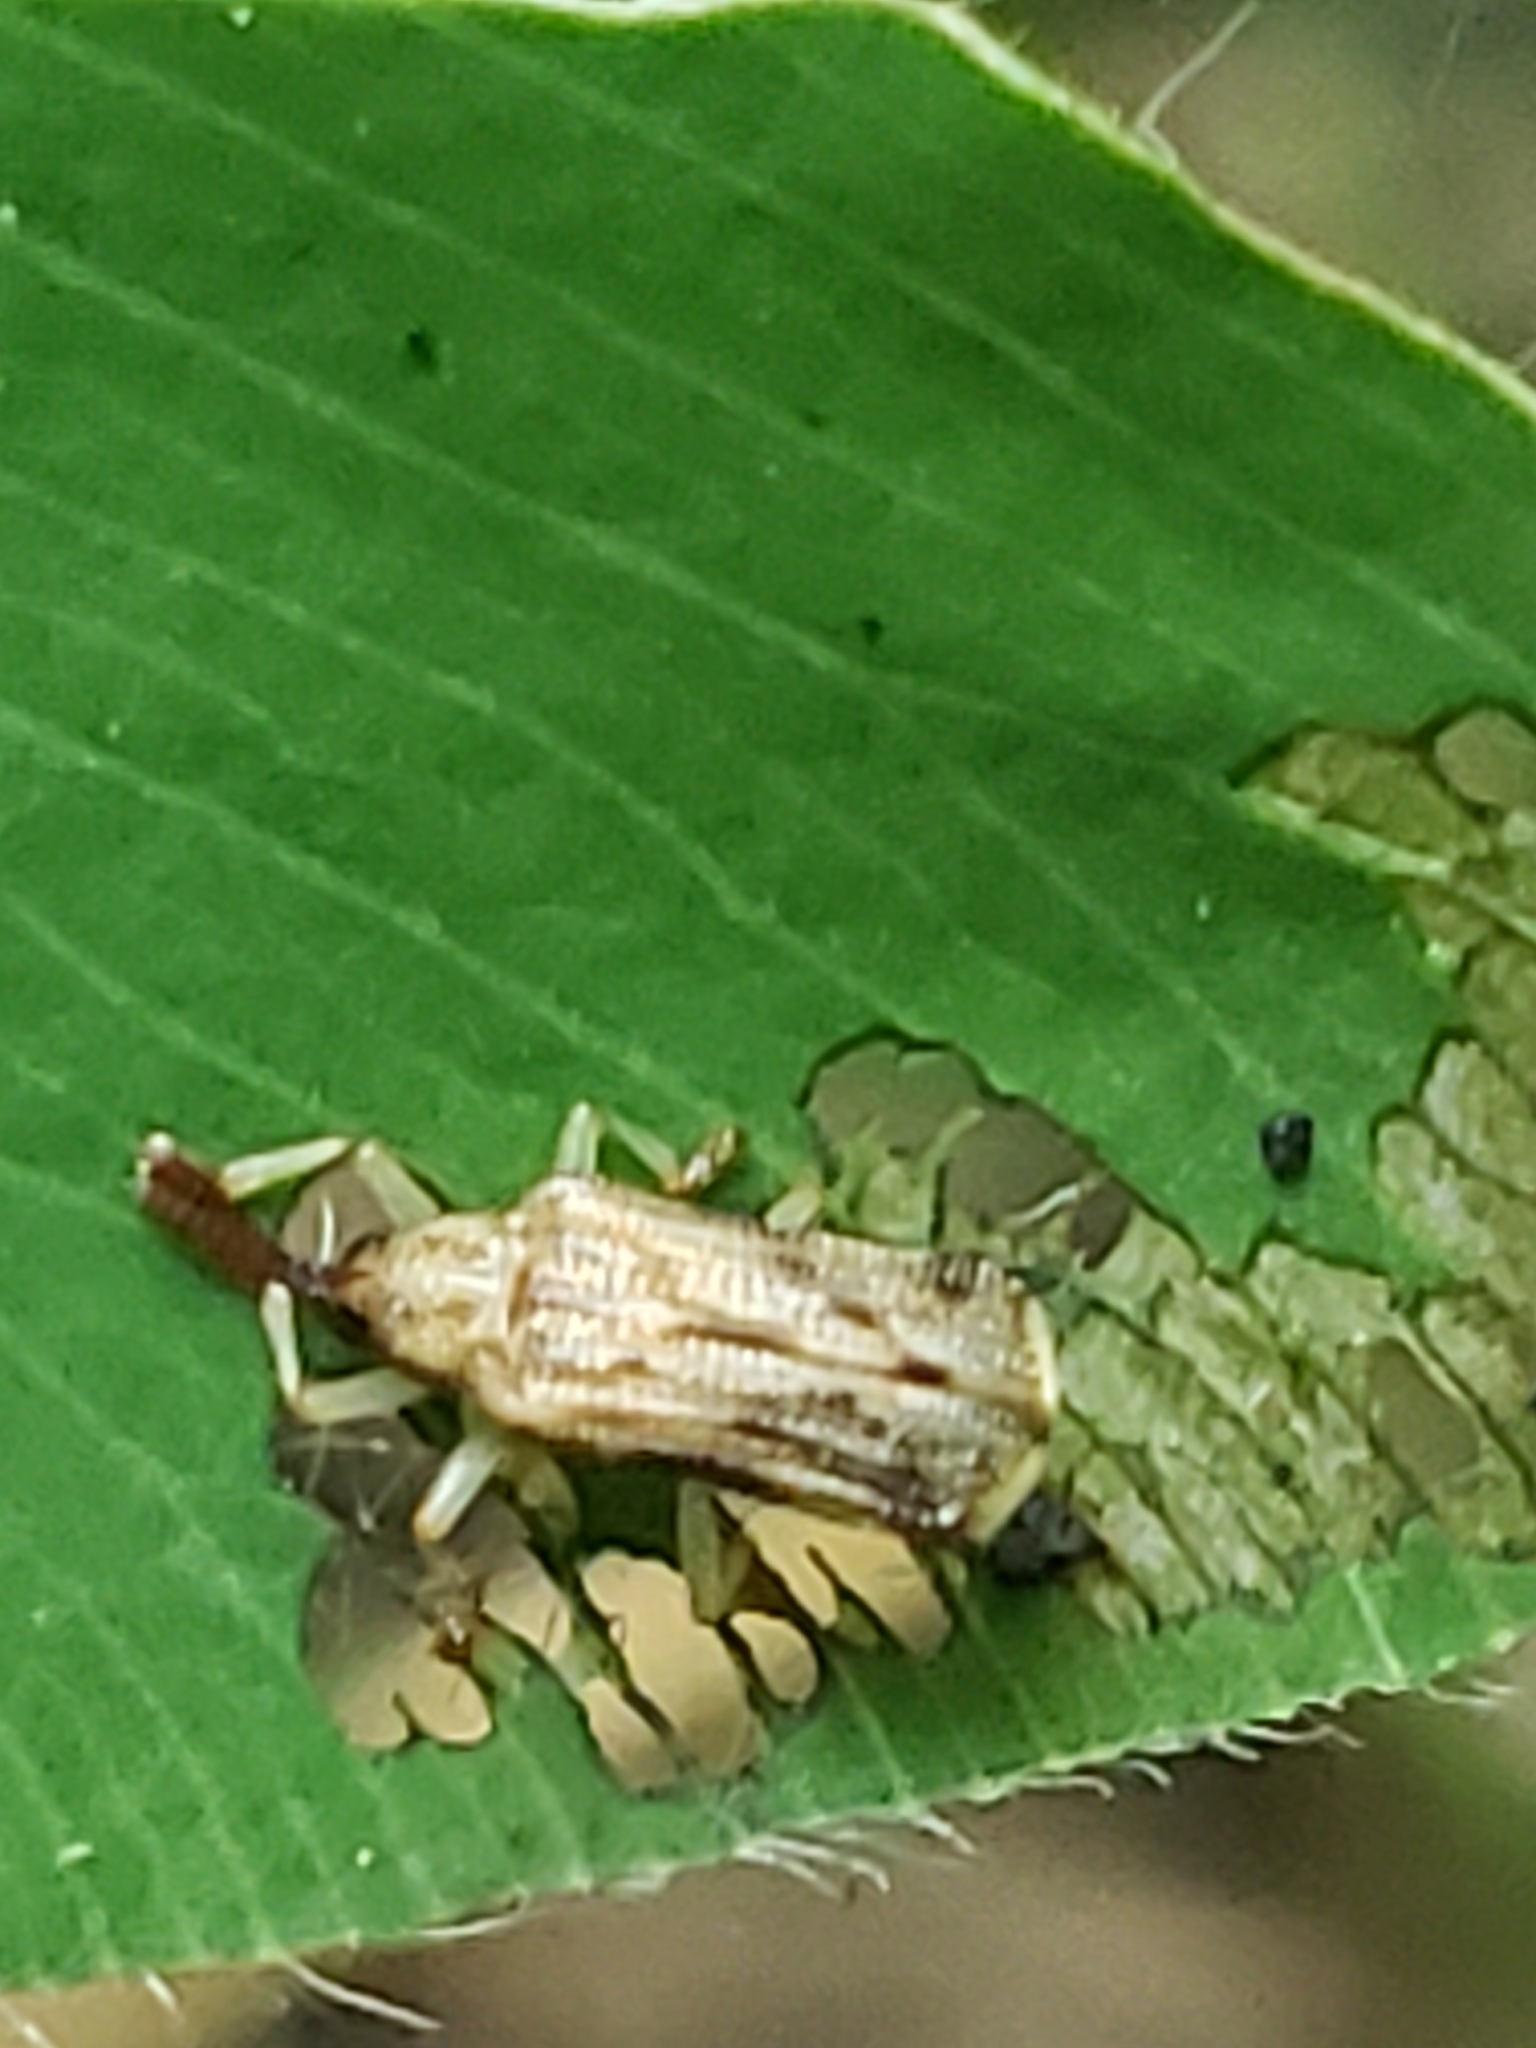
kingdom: Animalia
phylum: Arthropoda
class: Insecta
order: Coleoptera
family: Chrysomelidae
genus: Sumitrosis
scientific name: Sumitrosis rosea
